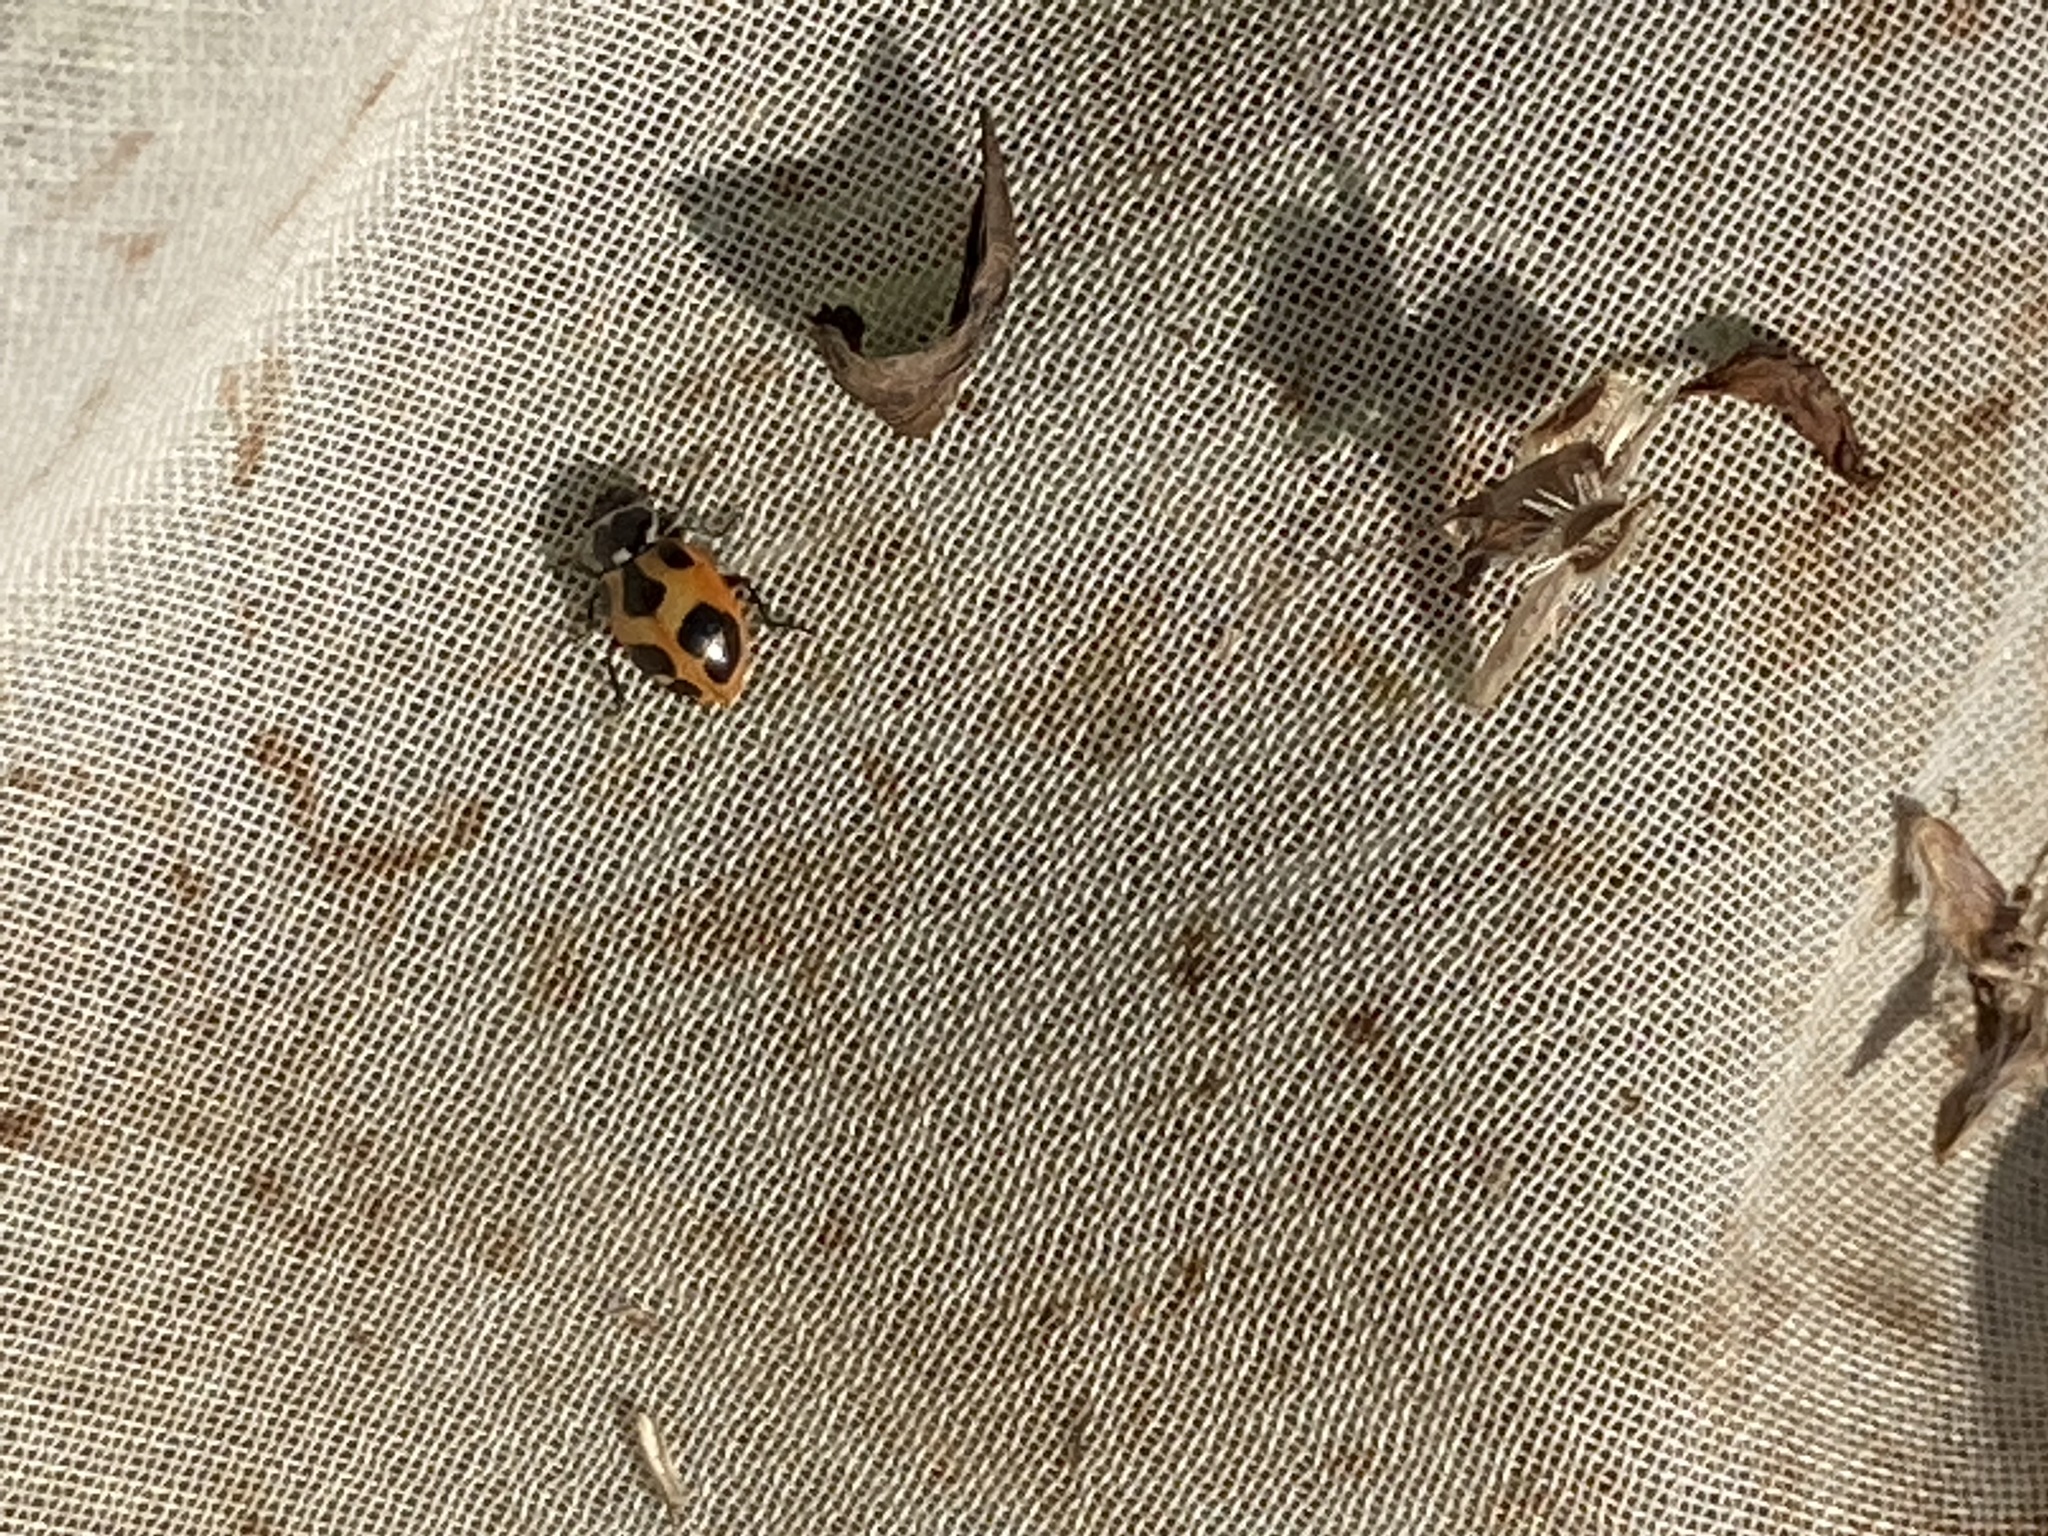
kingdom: Animalia
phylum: Arthropoda
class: Insecta
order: Coleoptera
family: Coccinellidae
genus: Hippodamia
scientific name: Hippodamia parenthesis
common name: Parenthesis lady beetle
